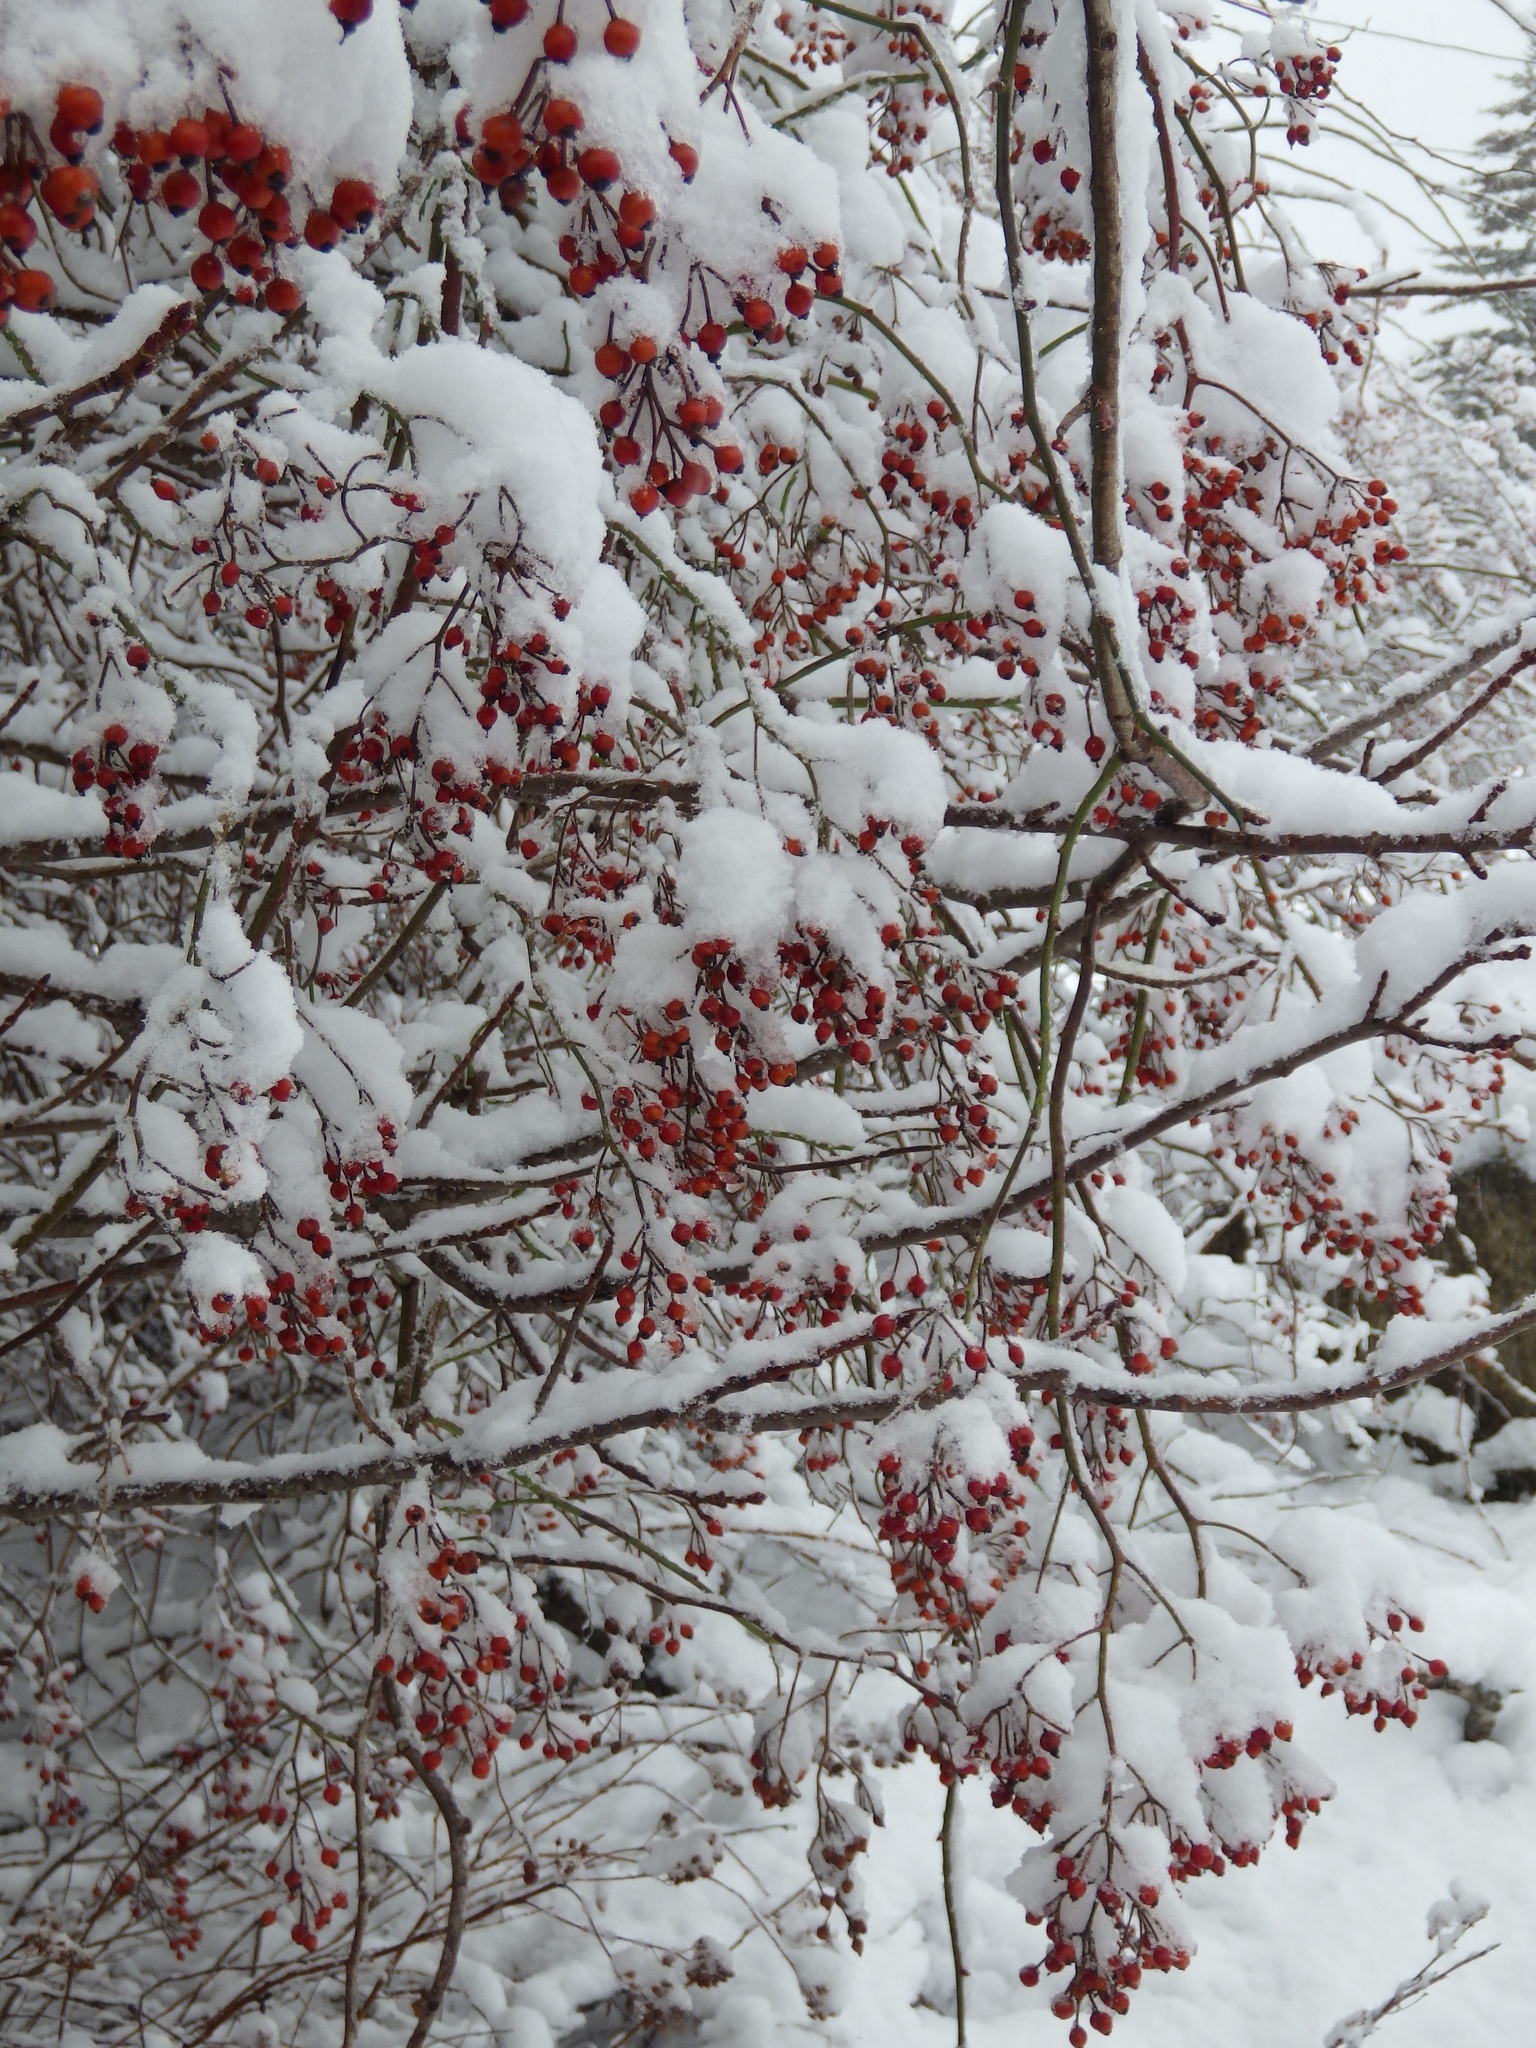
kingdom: Plantae
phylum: Tracheophyta
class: Magnoliopsida
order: Rosales
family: Rosaceae
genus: Rosa
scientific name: Rosa multiflora
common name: Multiflora rose
